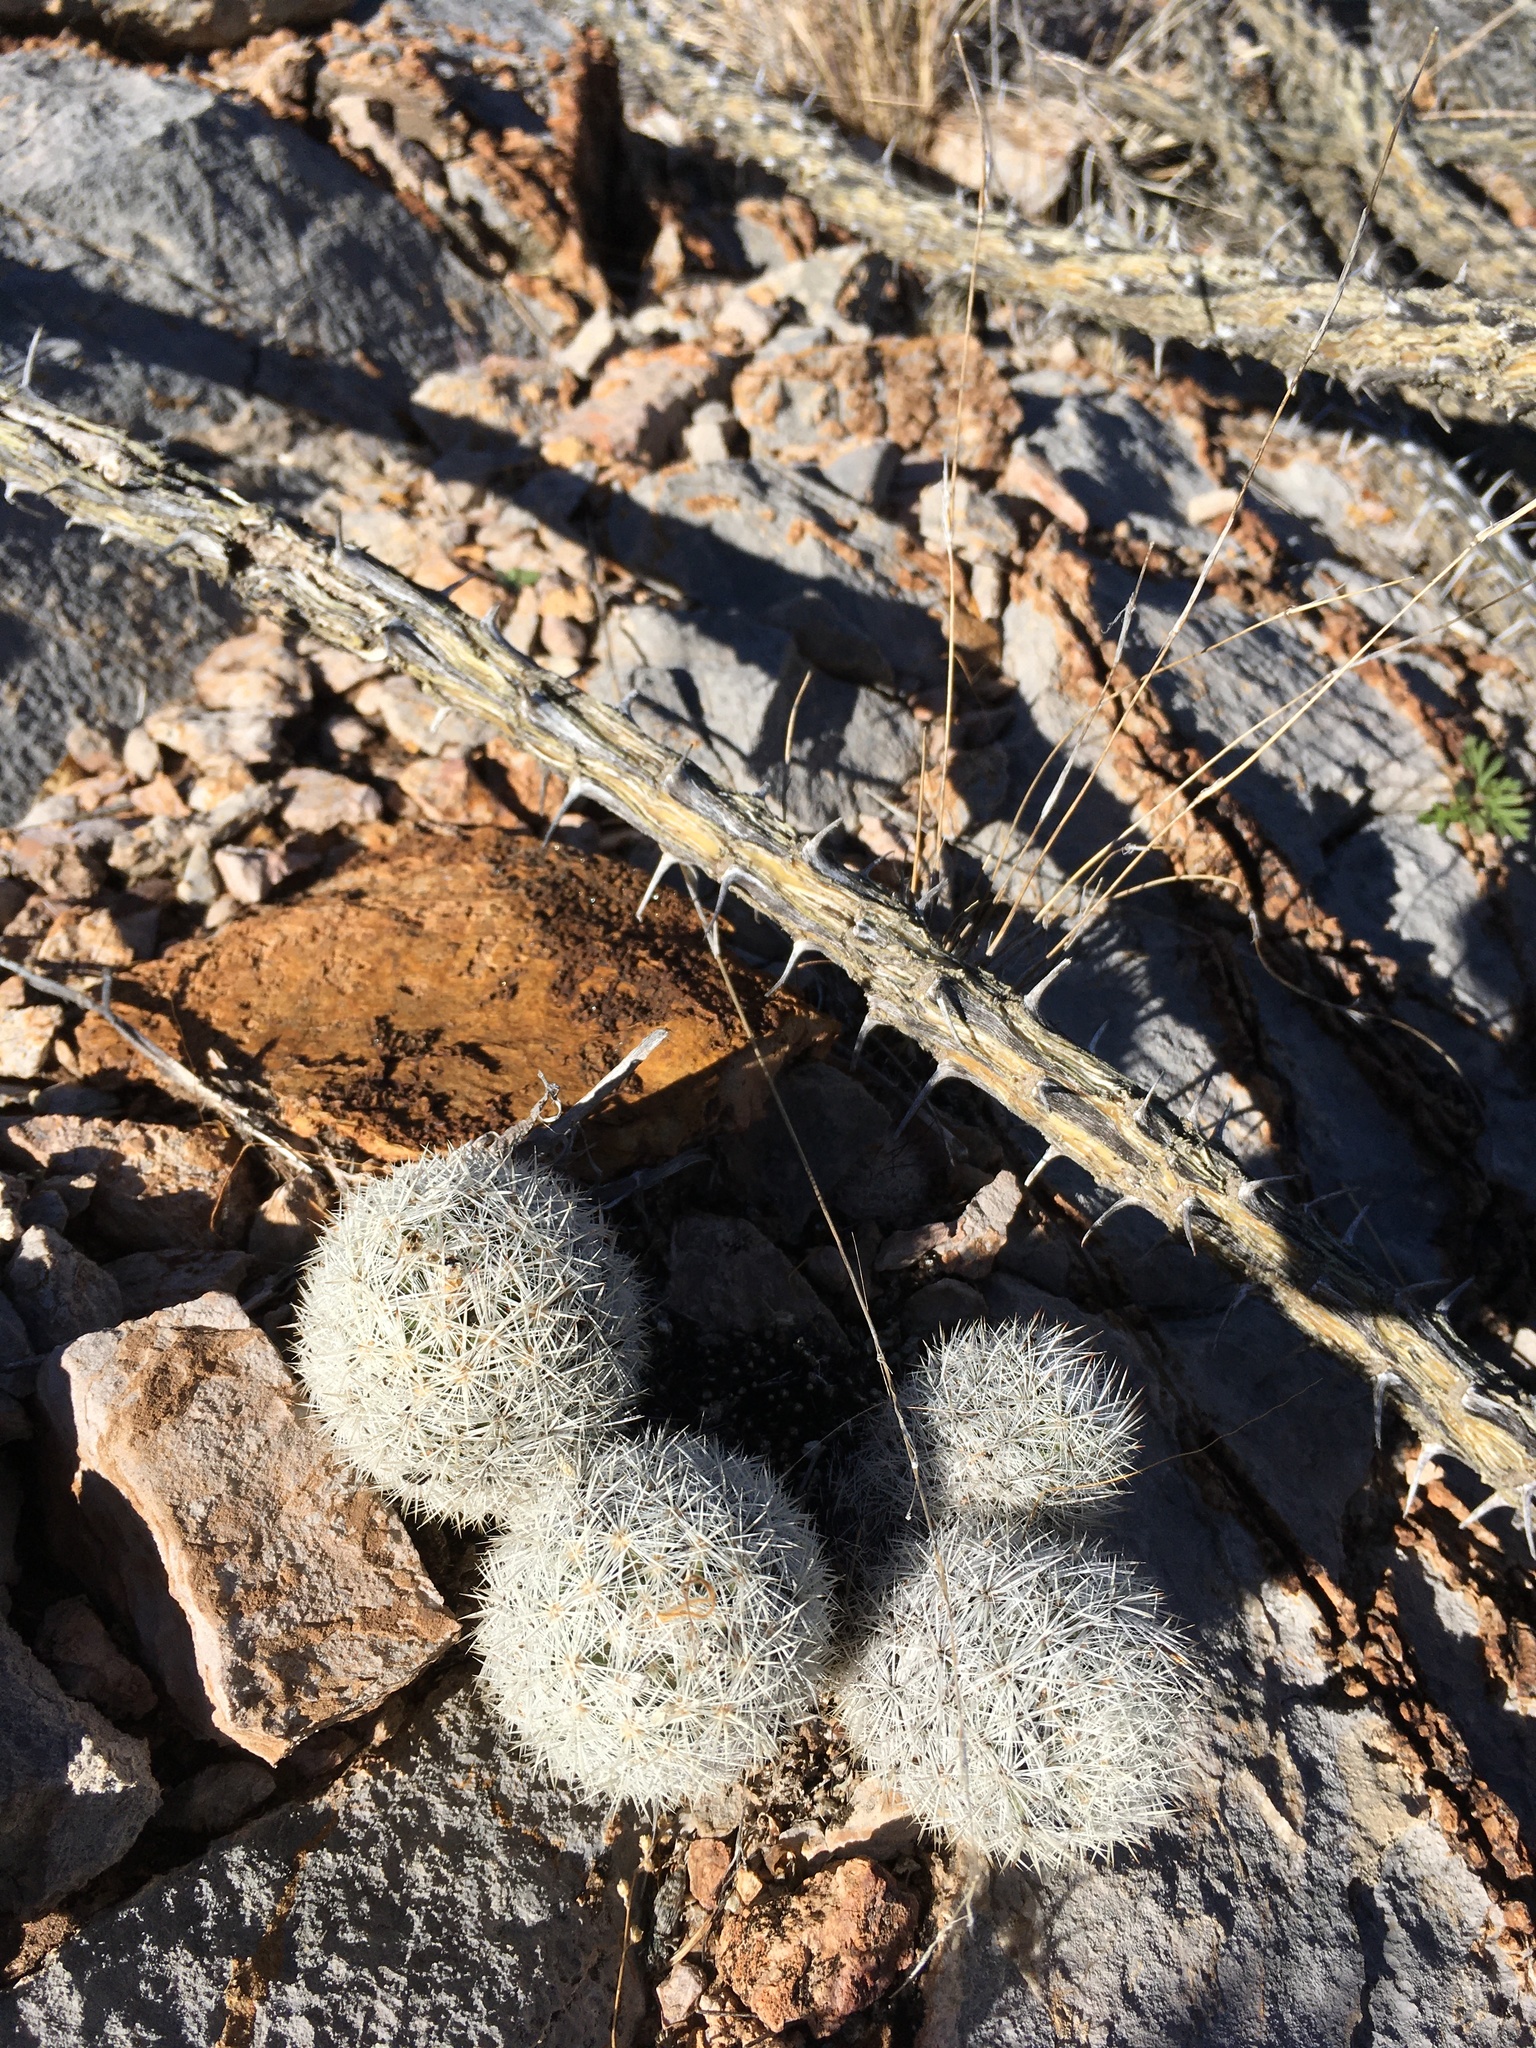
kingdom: Plantae
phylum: Tracheophyta
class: Magnoliopsida
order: Caryophyllales
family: Cactaceae
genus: Pelecyphora
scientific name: Pelecyphora sneedii
